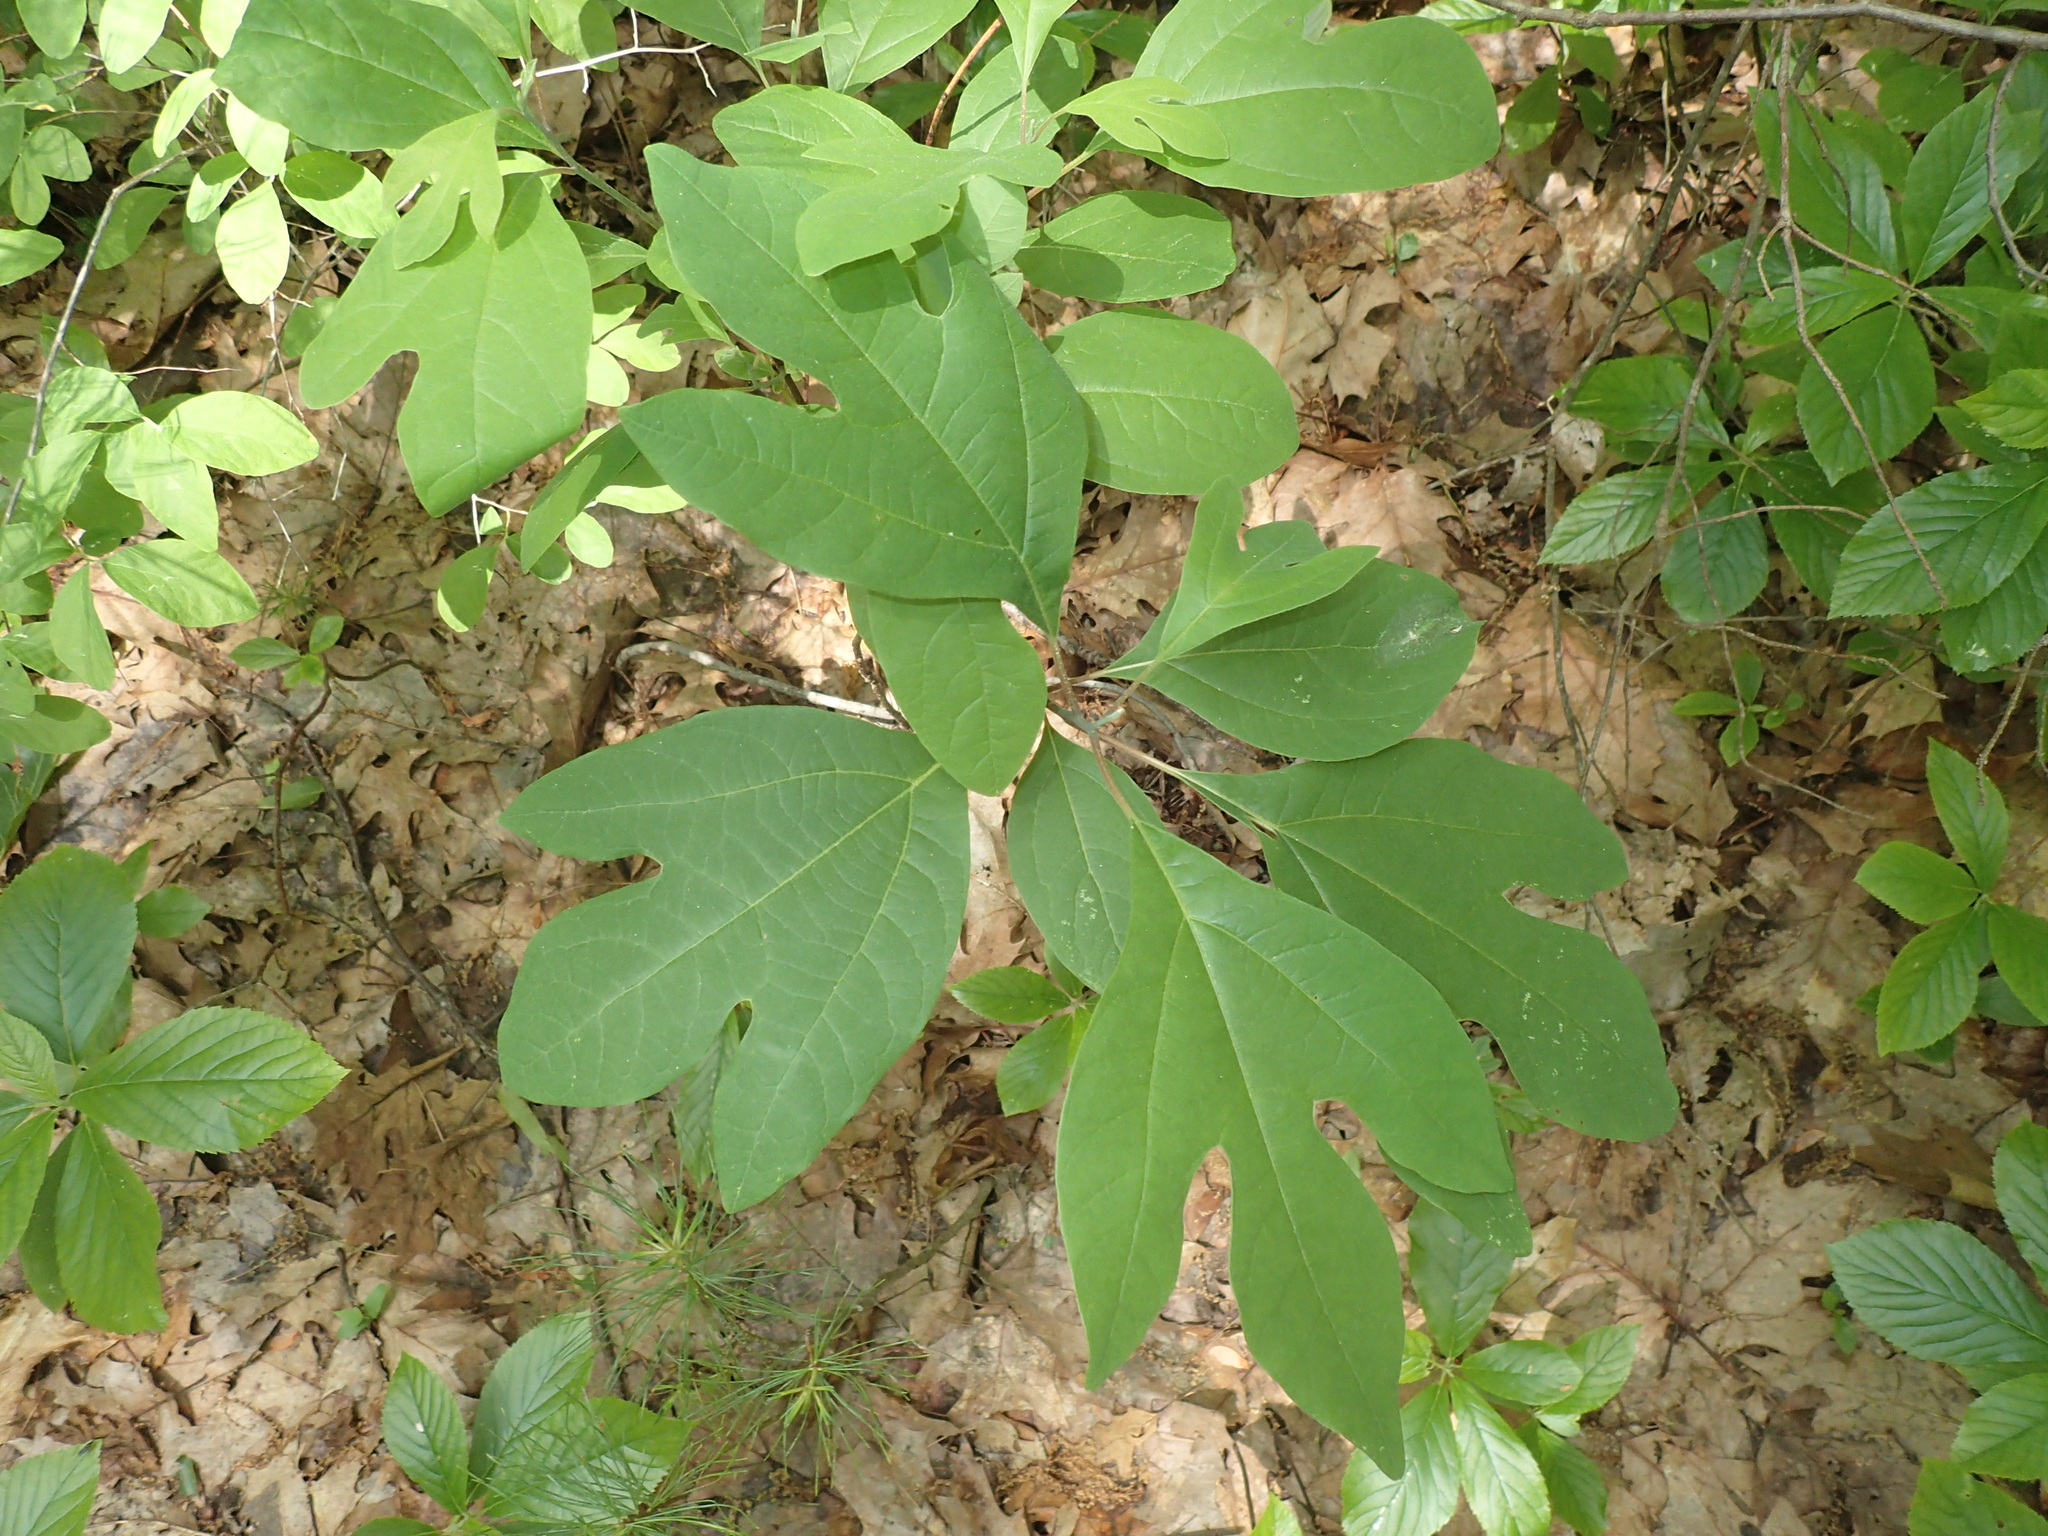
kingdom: Plantae
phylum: Tracheophyta
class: Magnoliopsida
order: Laurales
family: Lauraceae
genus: Sassafras
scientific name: Sassafras albidum
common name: Sassafras
